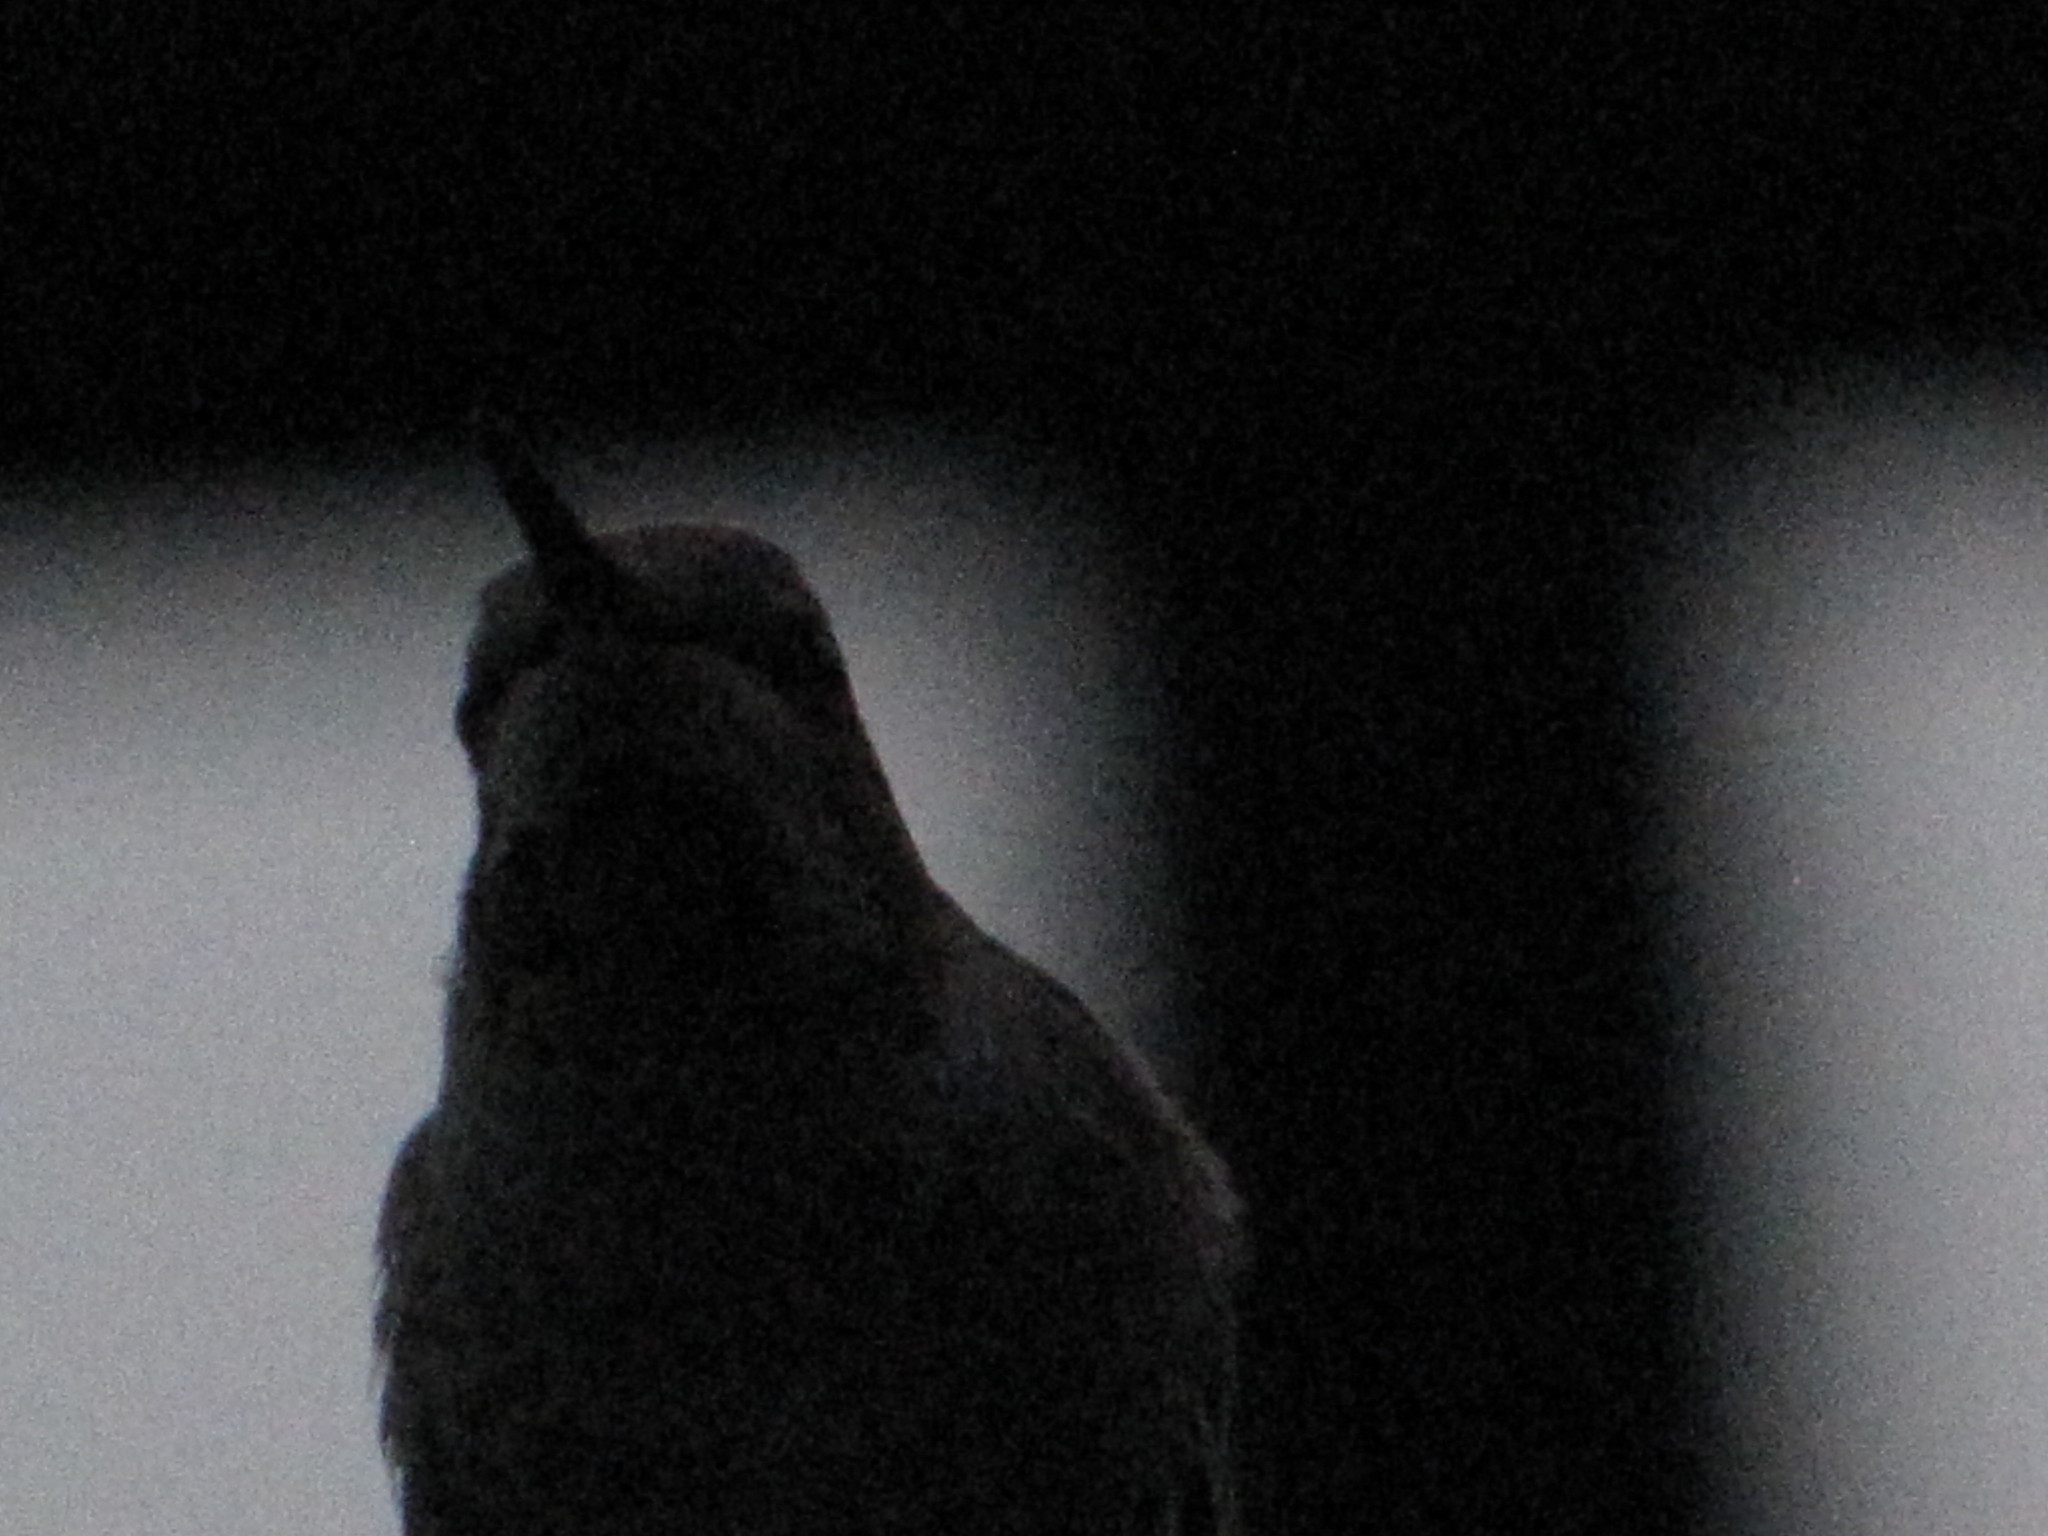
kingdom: Animalia
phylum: Chordata
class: Aves
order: Apodiformes
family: Trochilidae
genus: Calypte
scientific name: Calypte anna
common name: Anna's hummingbird
